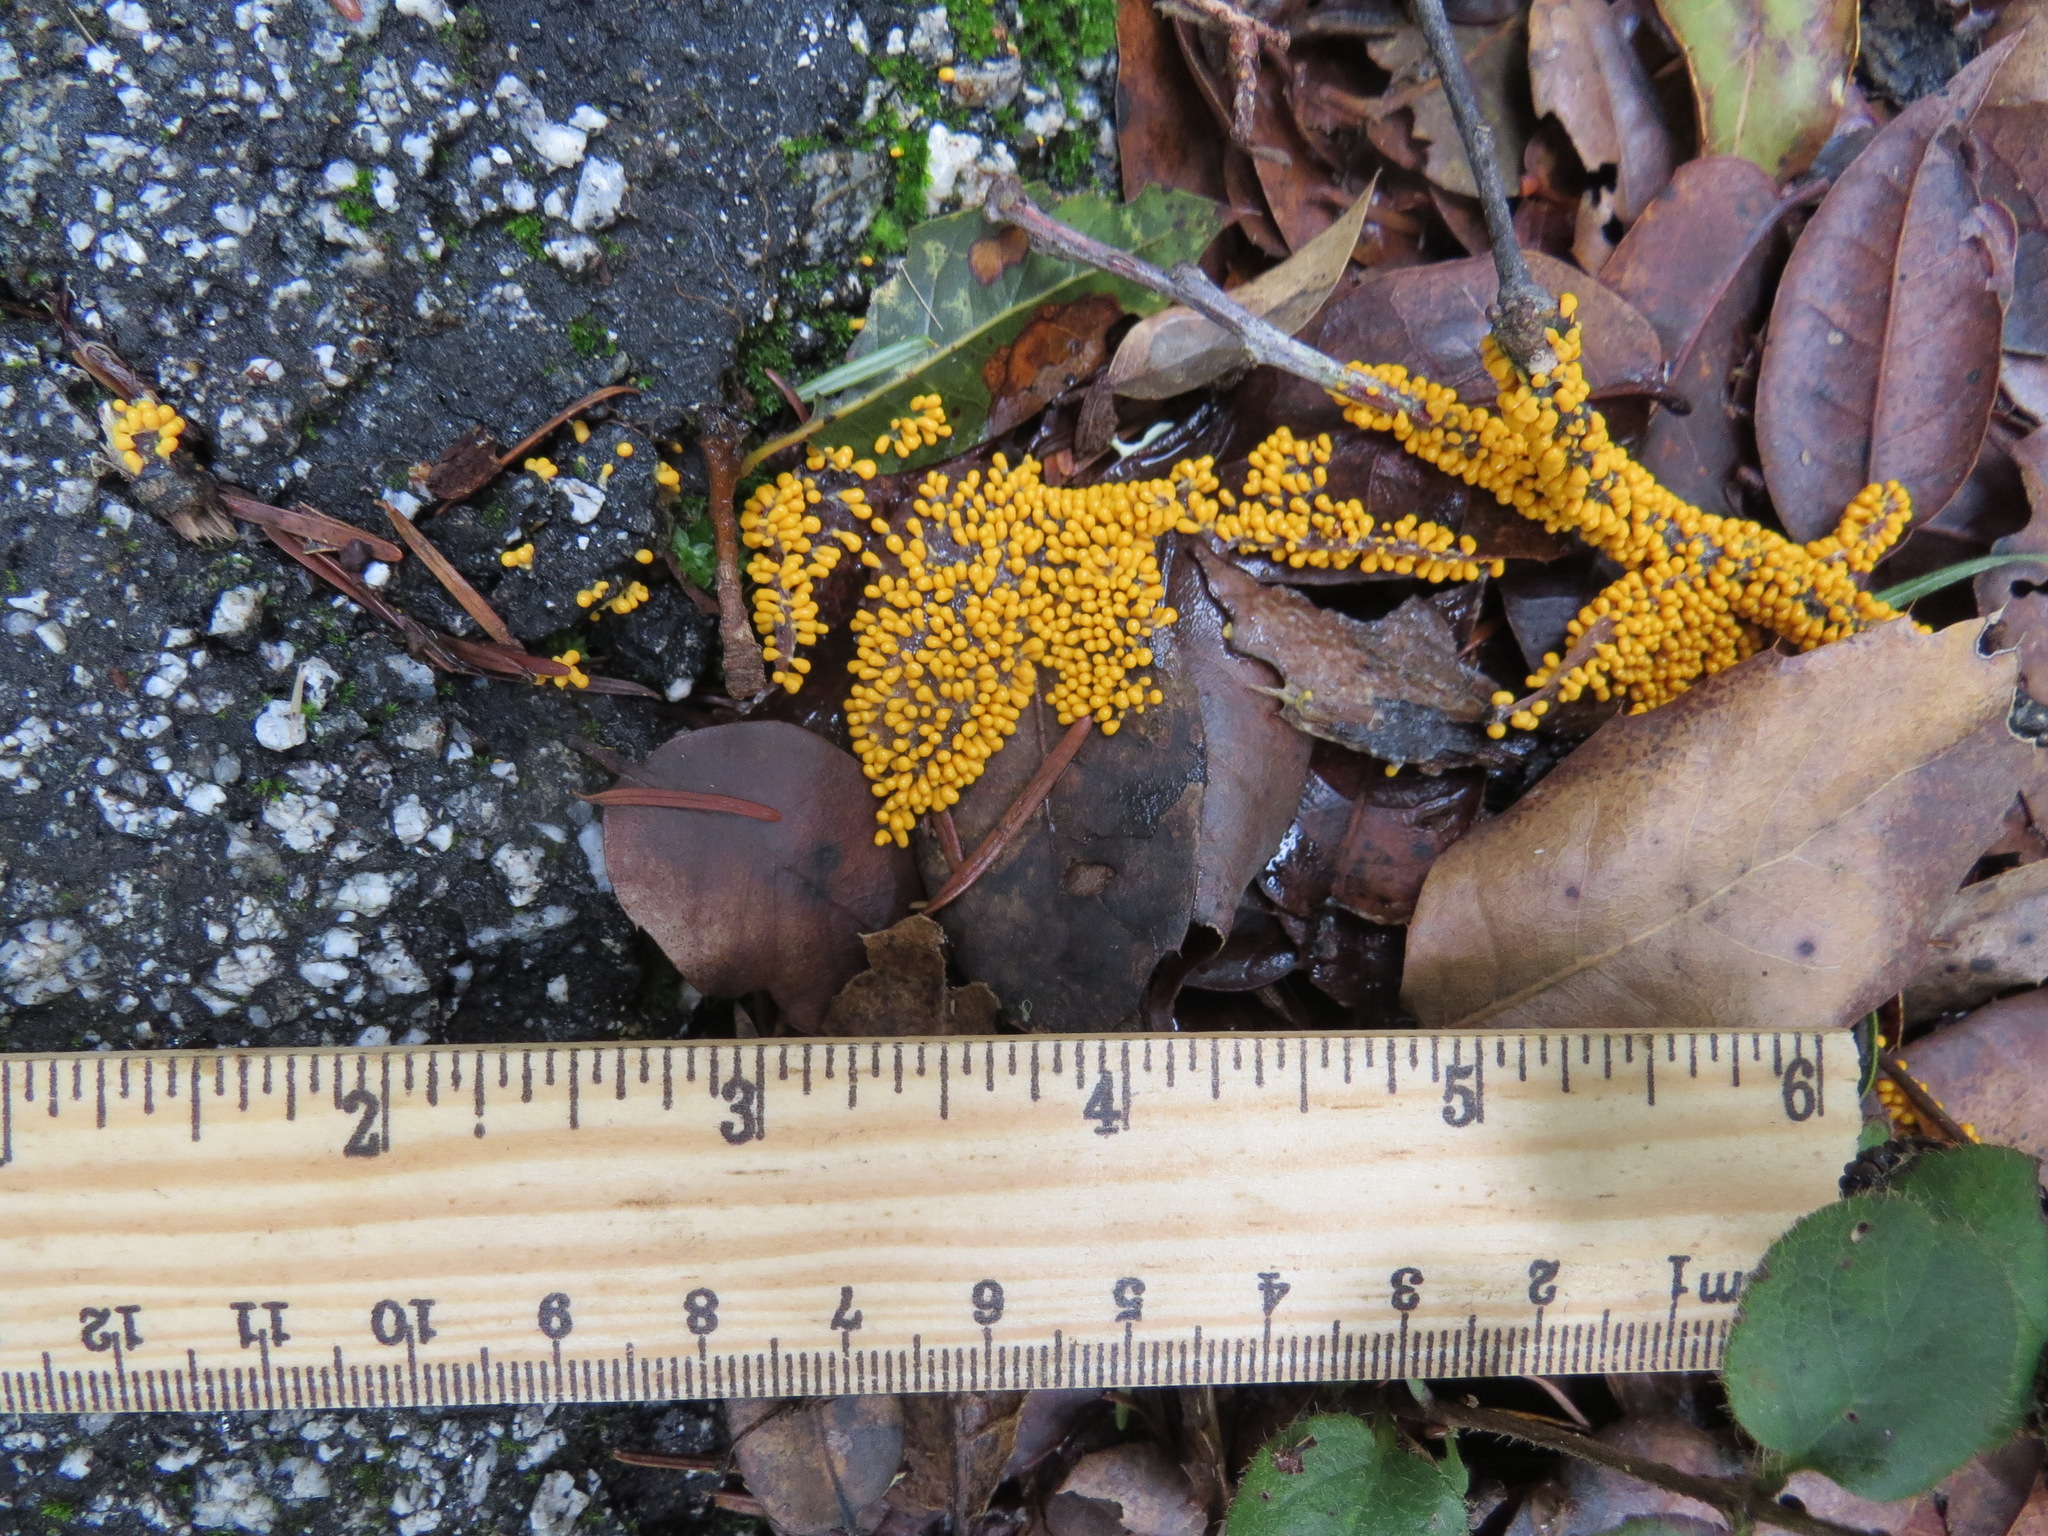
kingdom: Protozoa
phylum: Mycetozoa
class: Myxomycetes
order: Physarales
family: Physaraceae
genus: Leocarpus
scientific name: Leocarpus fragilis
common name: Insect-egg slime
